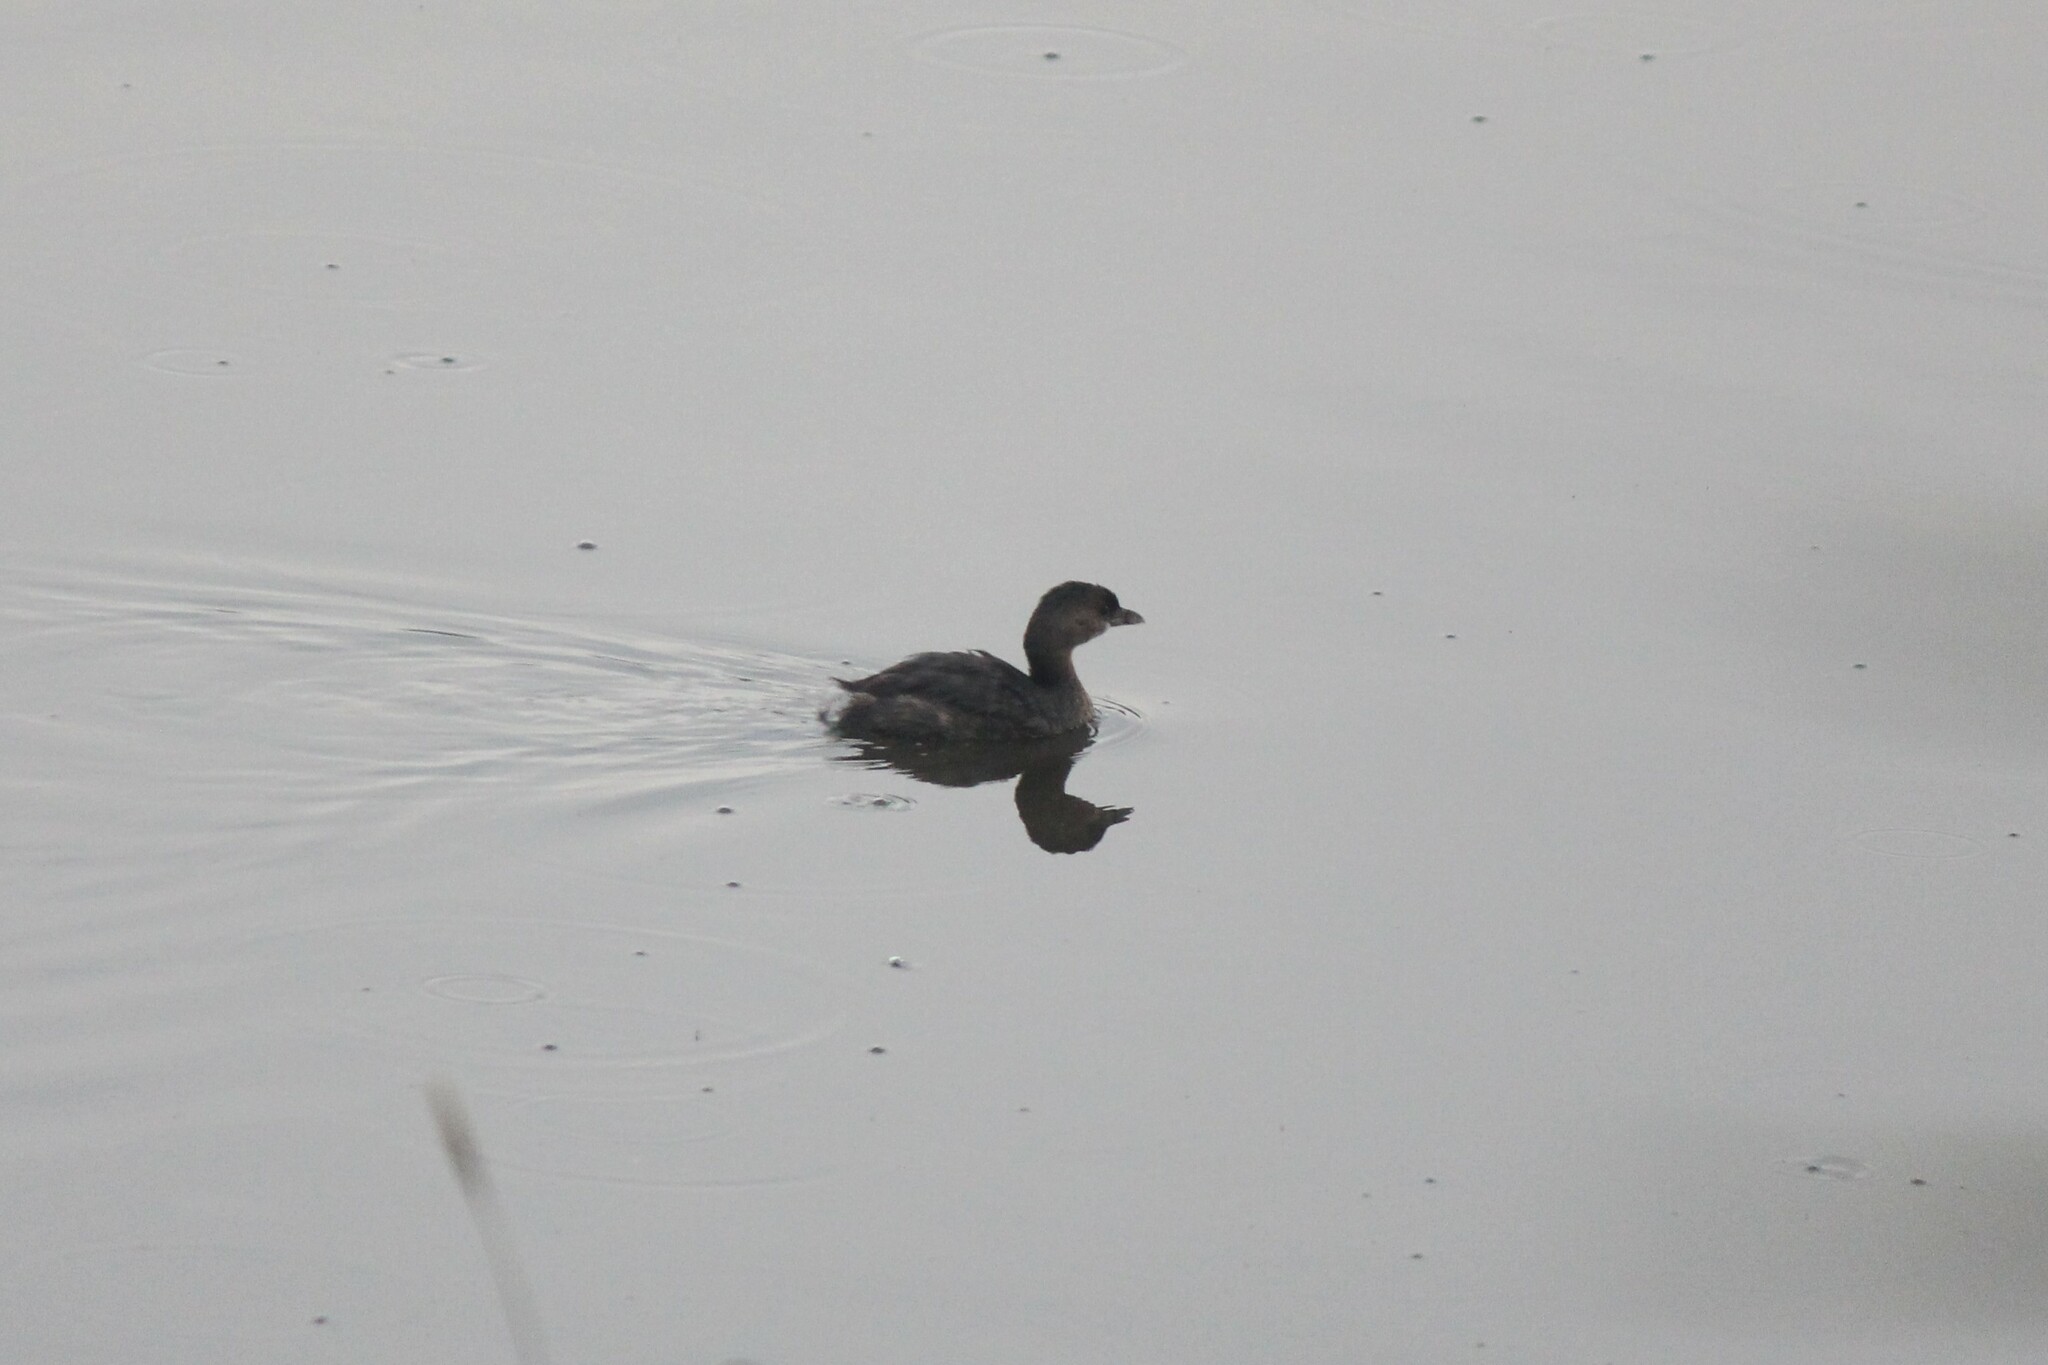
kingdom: Animalia
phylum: Chordata
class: Aves
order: Podicipediformes
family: Podicipedidae
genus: Podilymbus
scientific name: Podilymbus podiceps
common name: Pied-billed grebe
